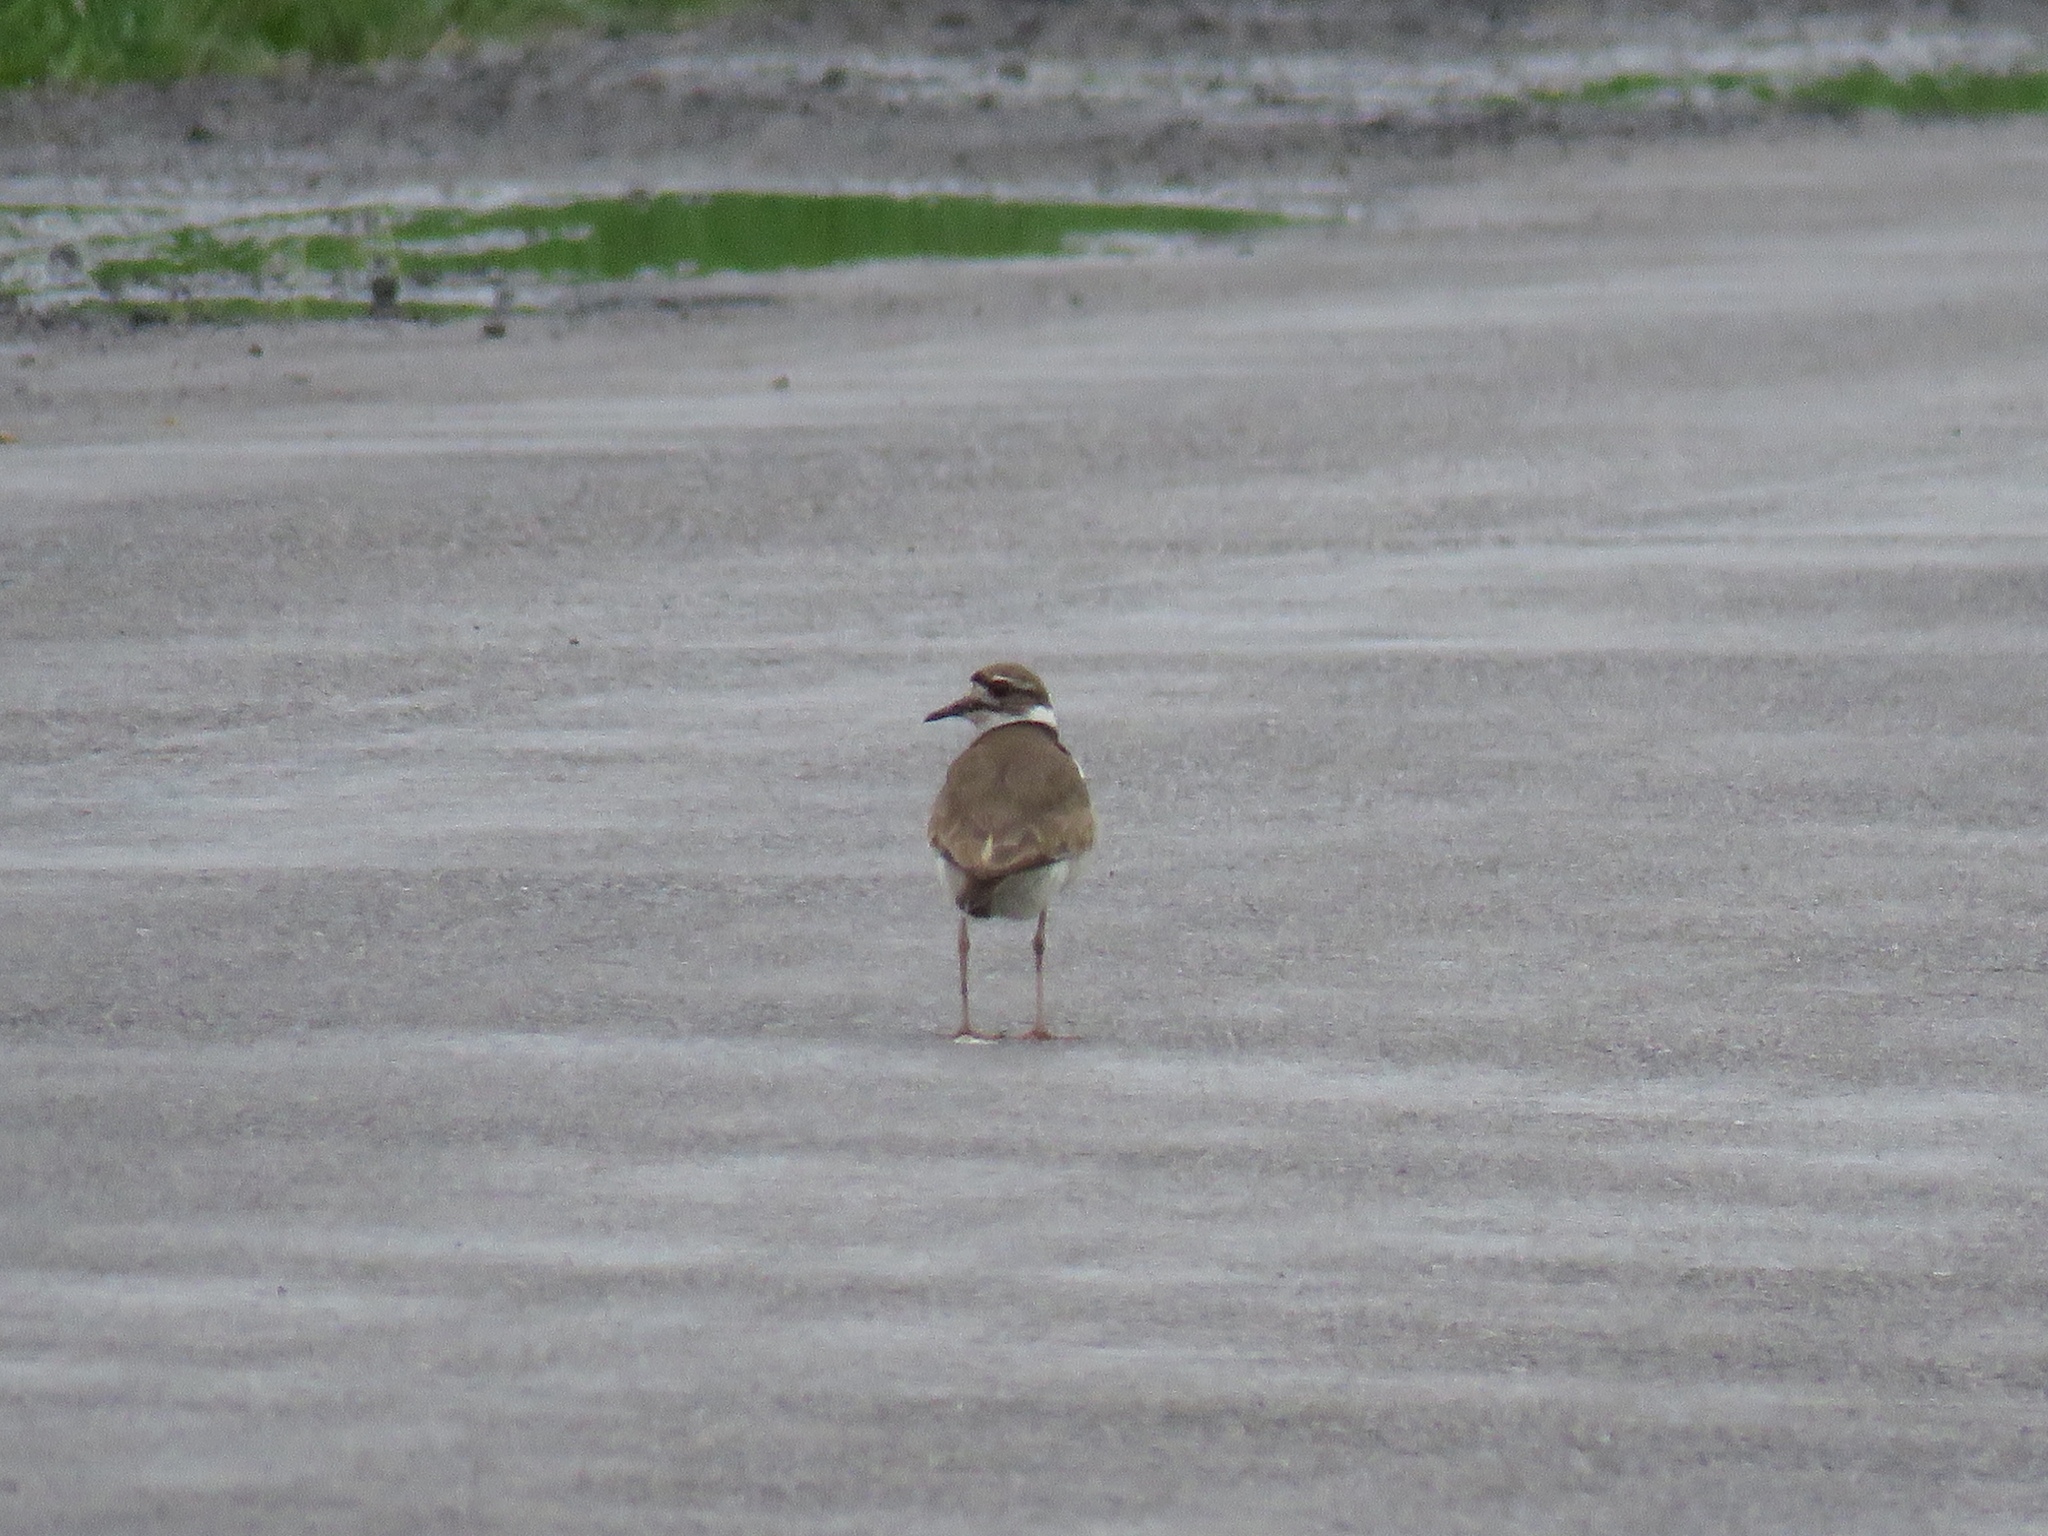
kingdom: Animalia
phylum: Chordata
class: Aves
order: Charadriiformes
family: Charadriidae
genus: Charadrius
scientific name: Charadrius vociferus
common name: Killdeer
